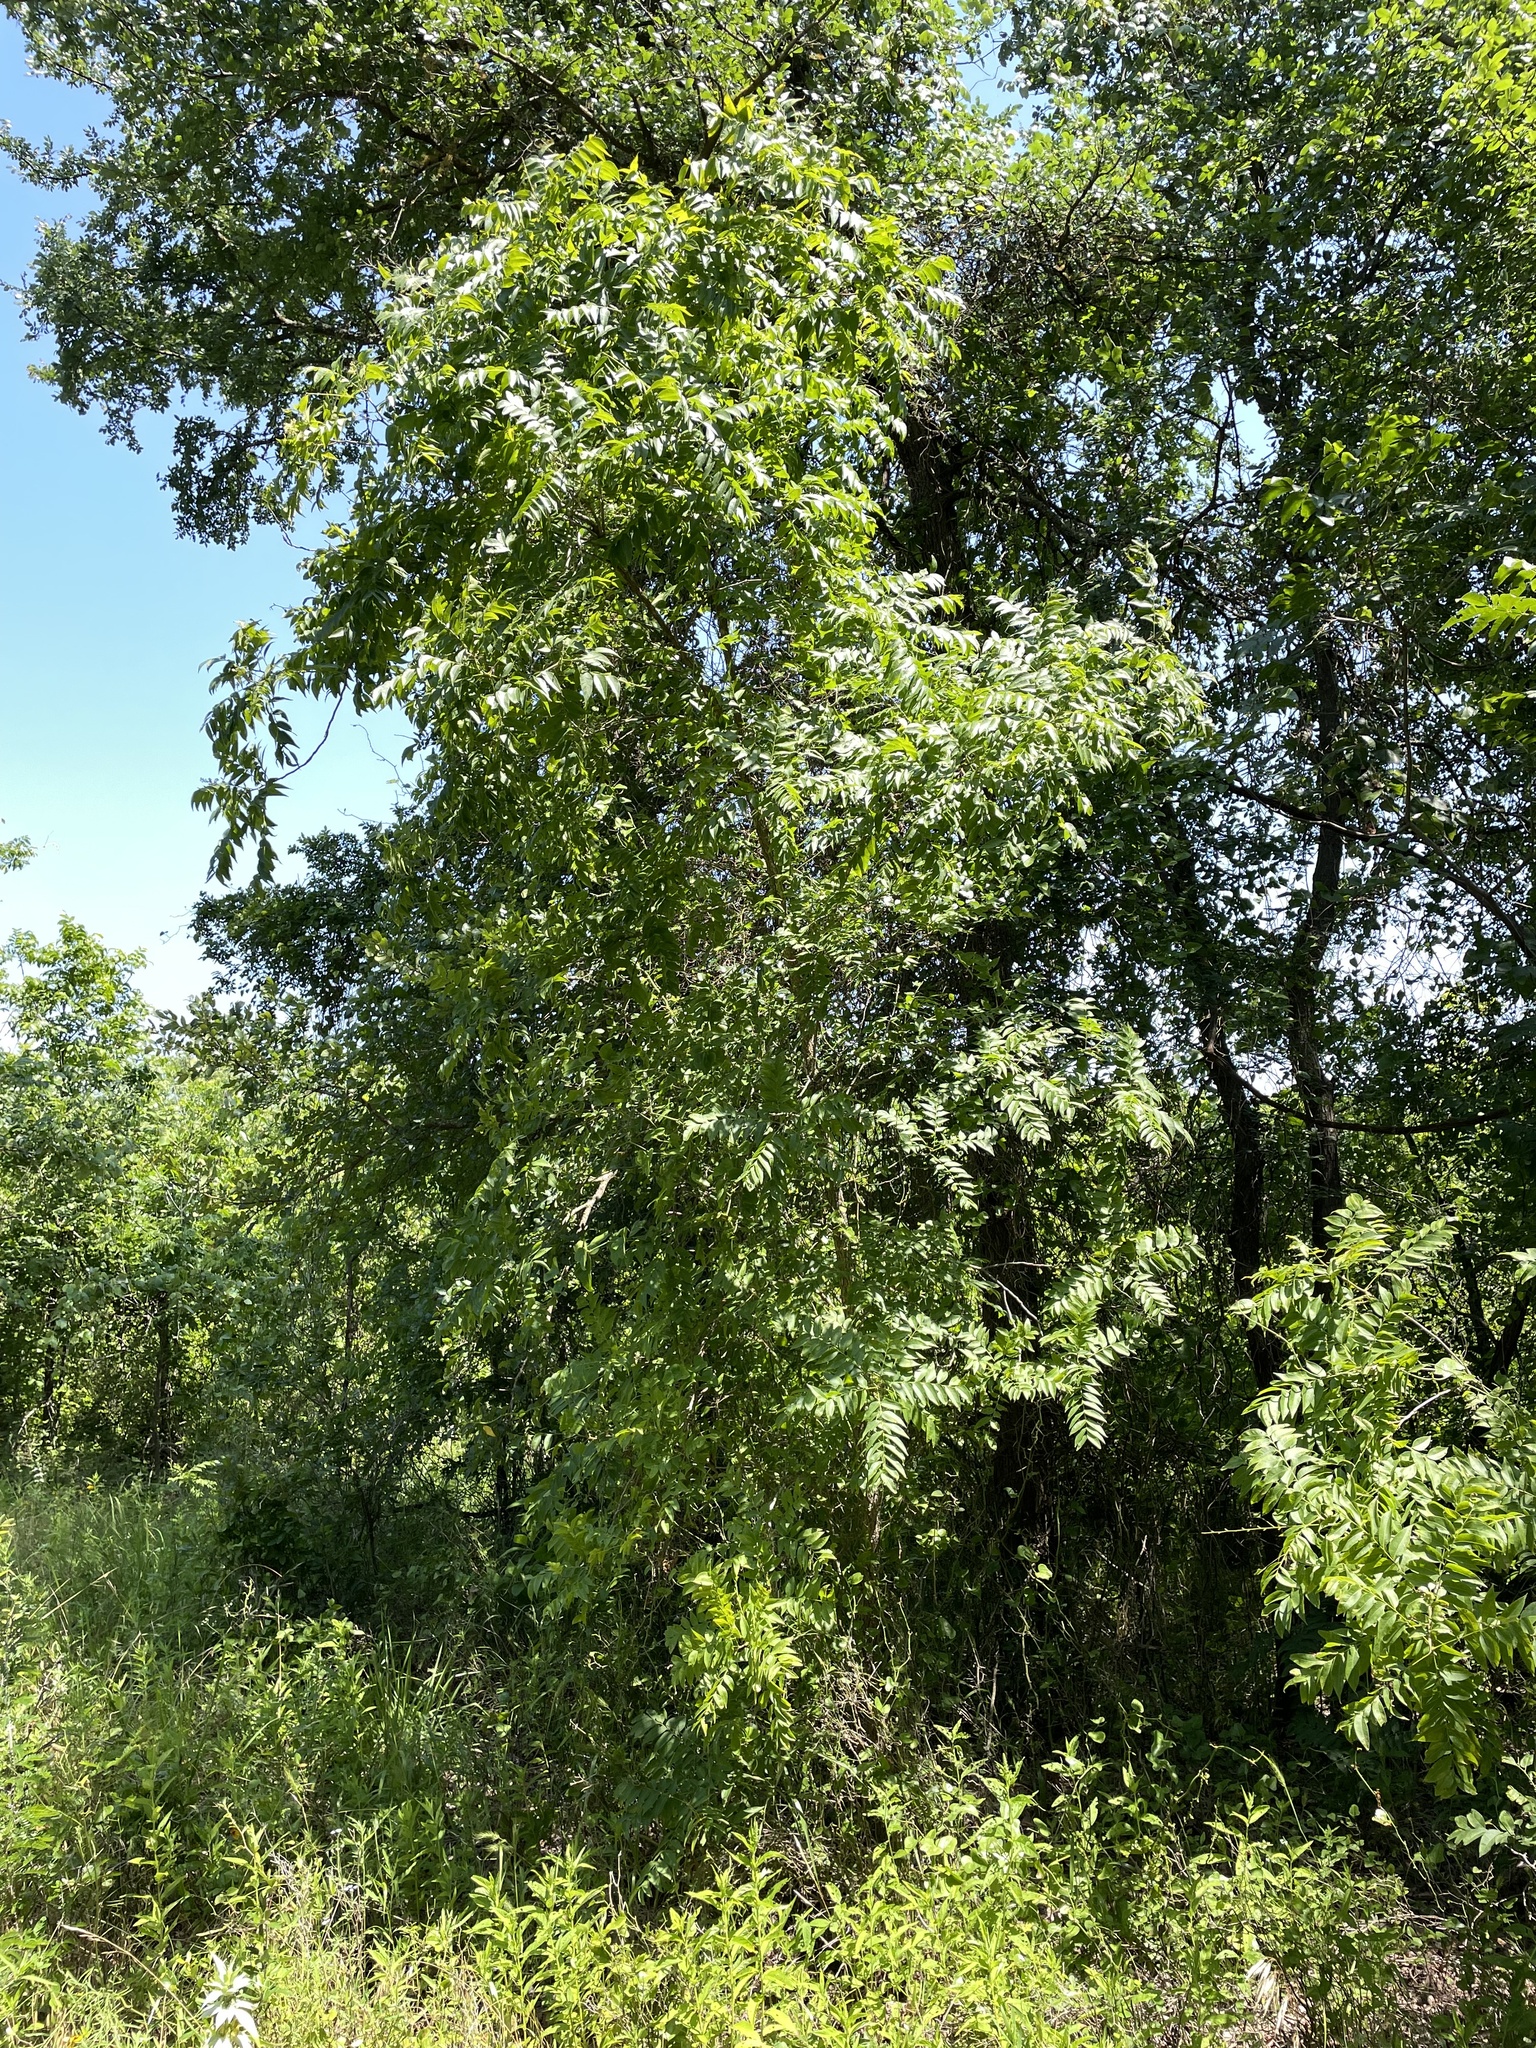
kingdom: Plantae
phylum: Tracheophyta
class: Magnoliopsida
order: Sapindales
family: Sapindaceae
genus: Sapindus
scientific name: Sapindus drummondii
